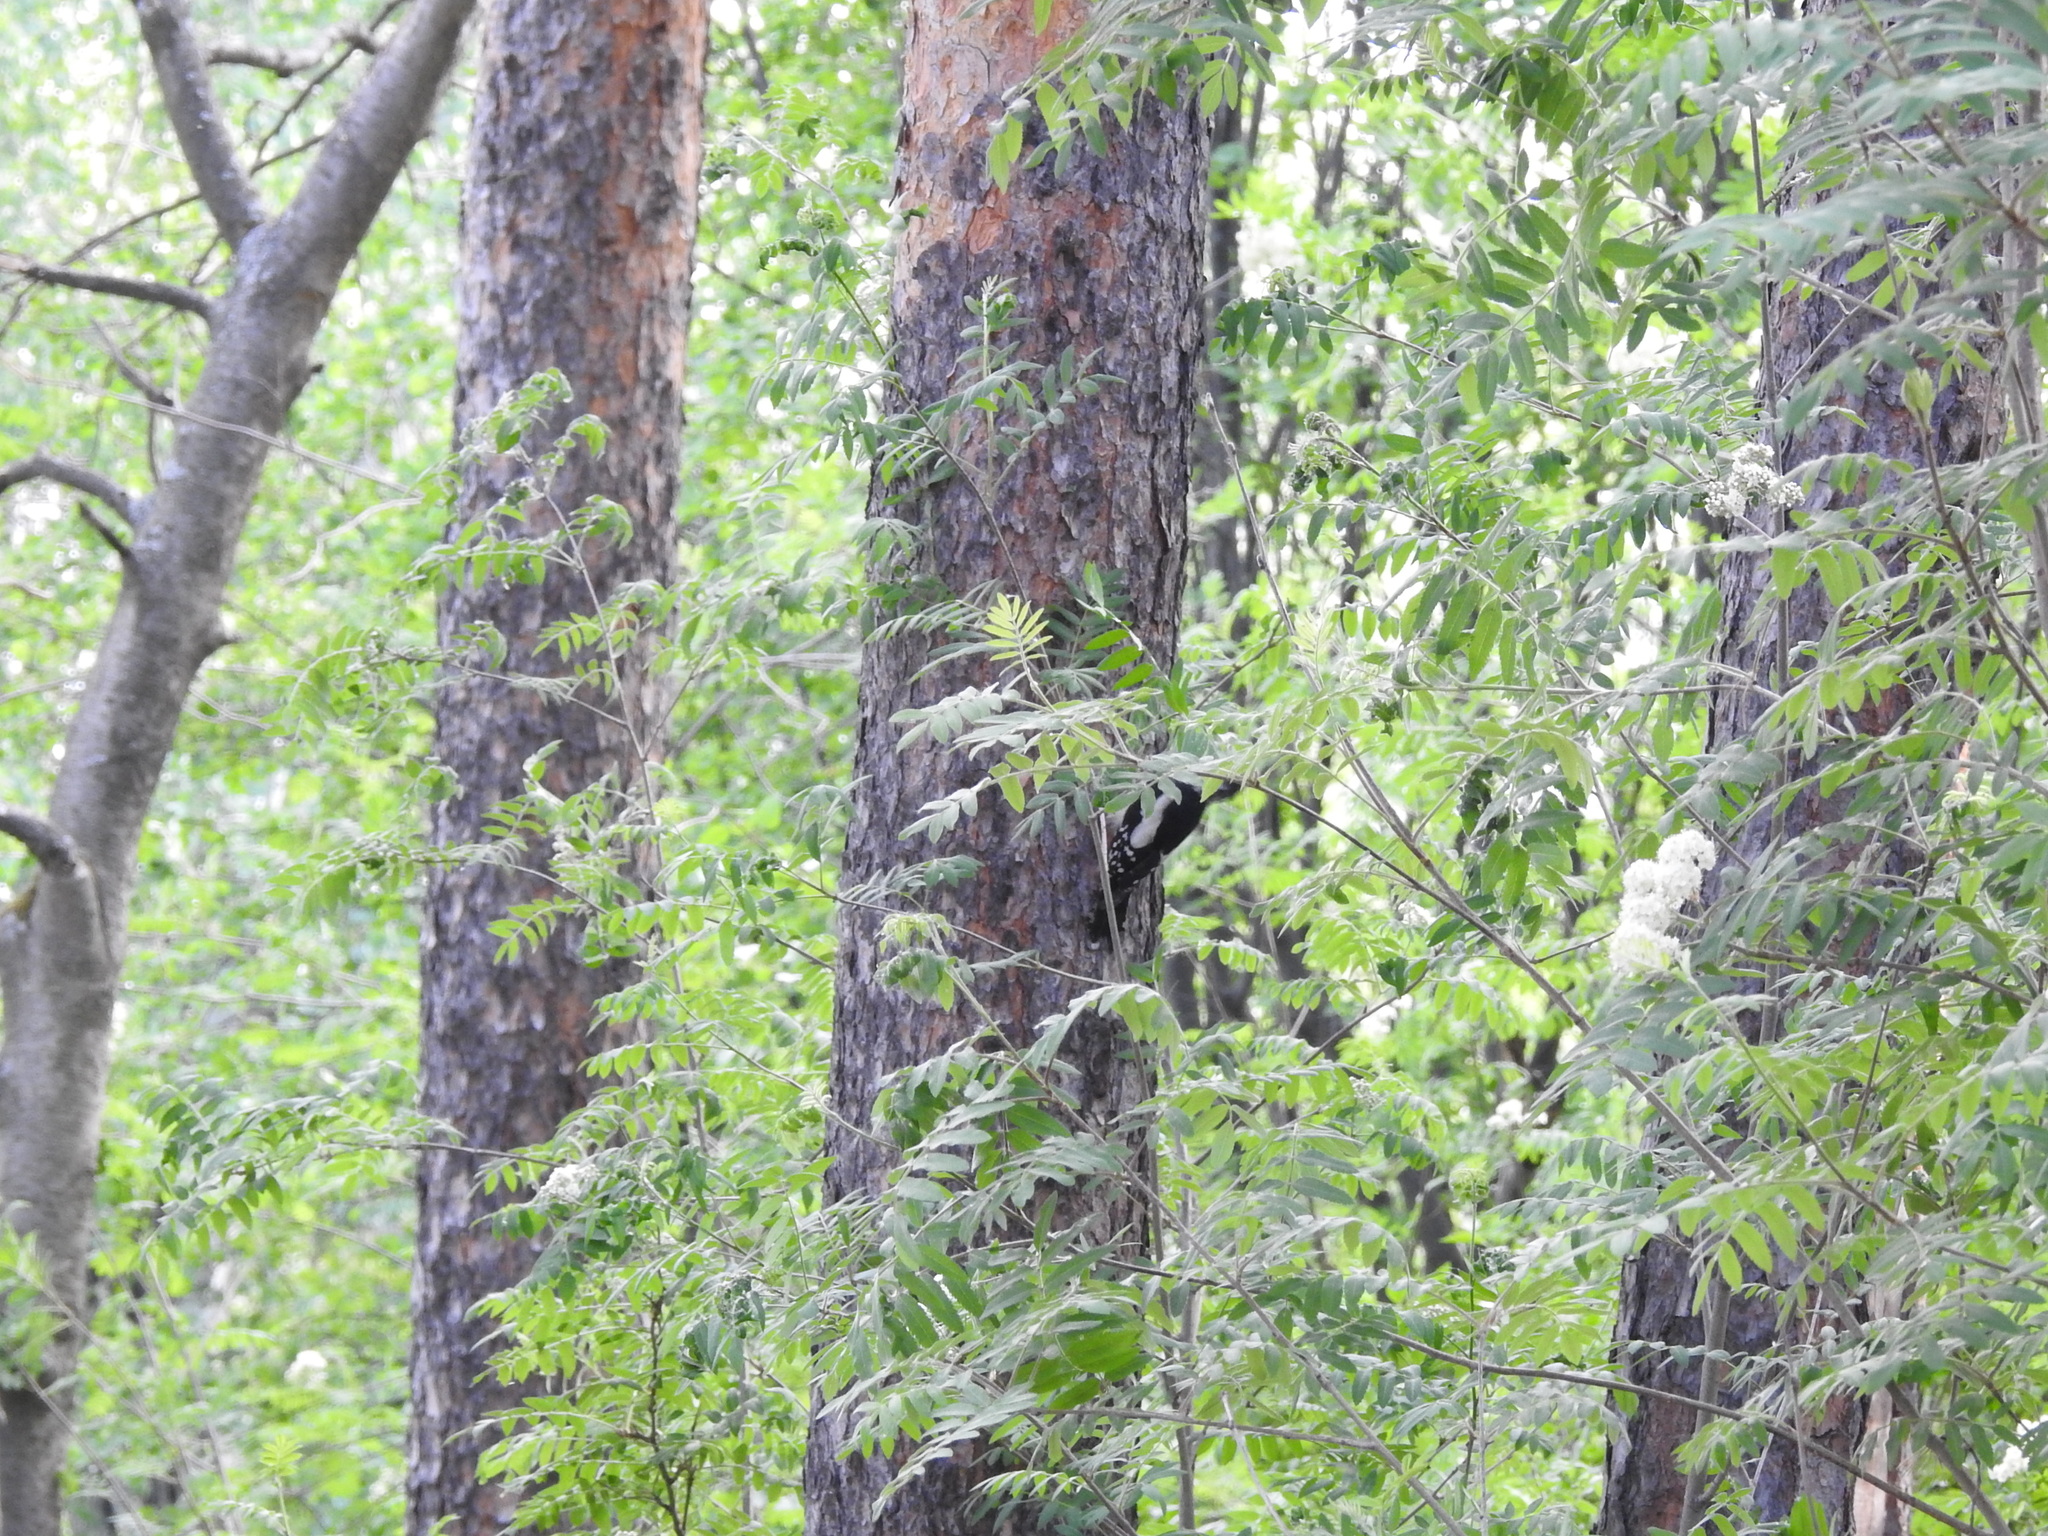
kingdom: Animalia
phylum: Chordata
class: Aves
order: Piciformes
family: Picidae
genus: Dendrocopos
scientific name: Dendrocopos major
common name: Great spotted woodpecker
